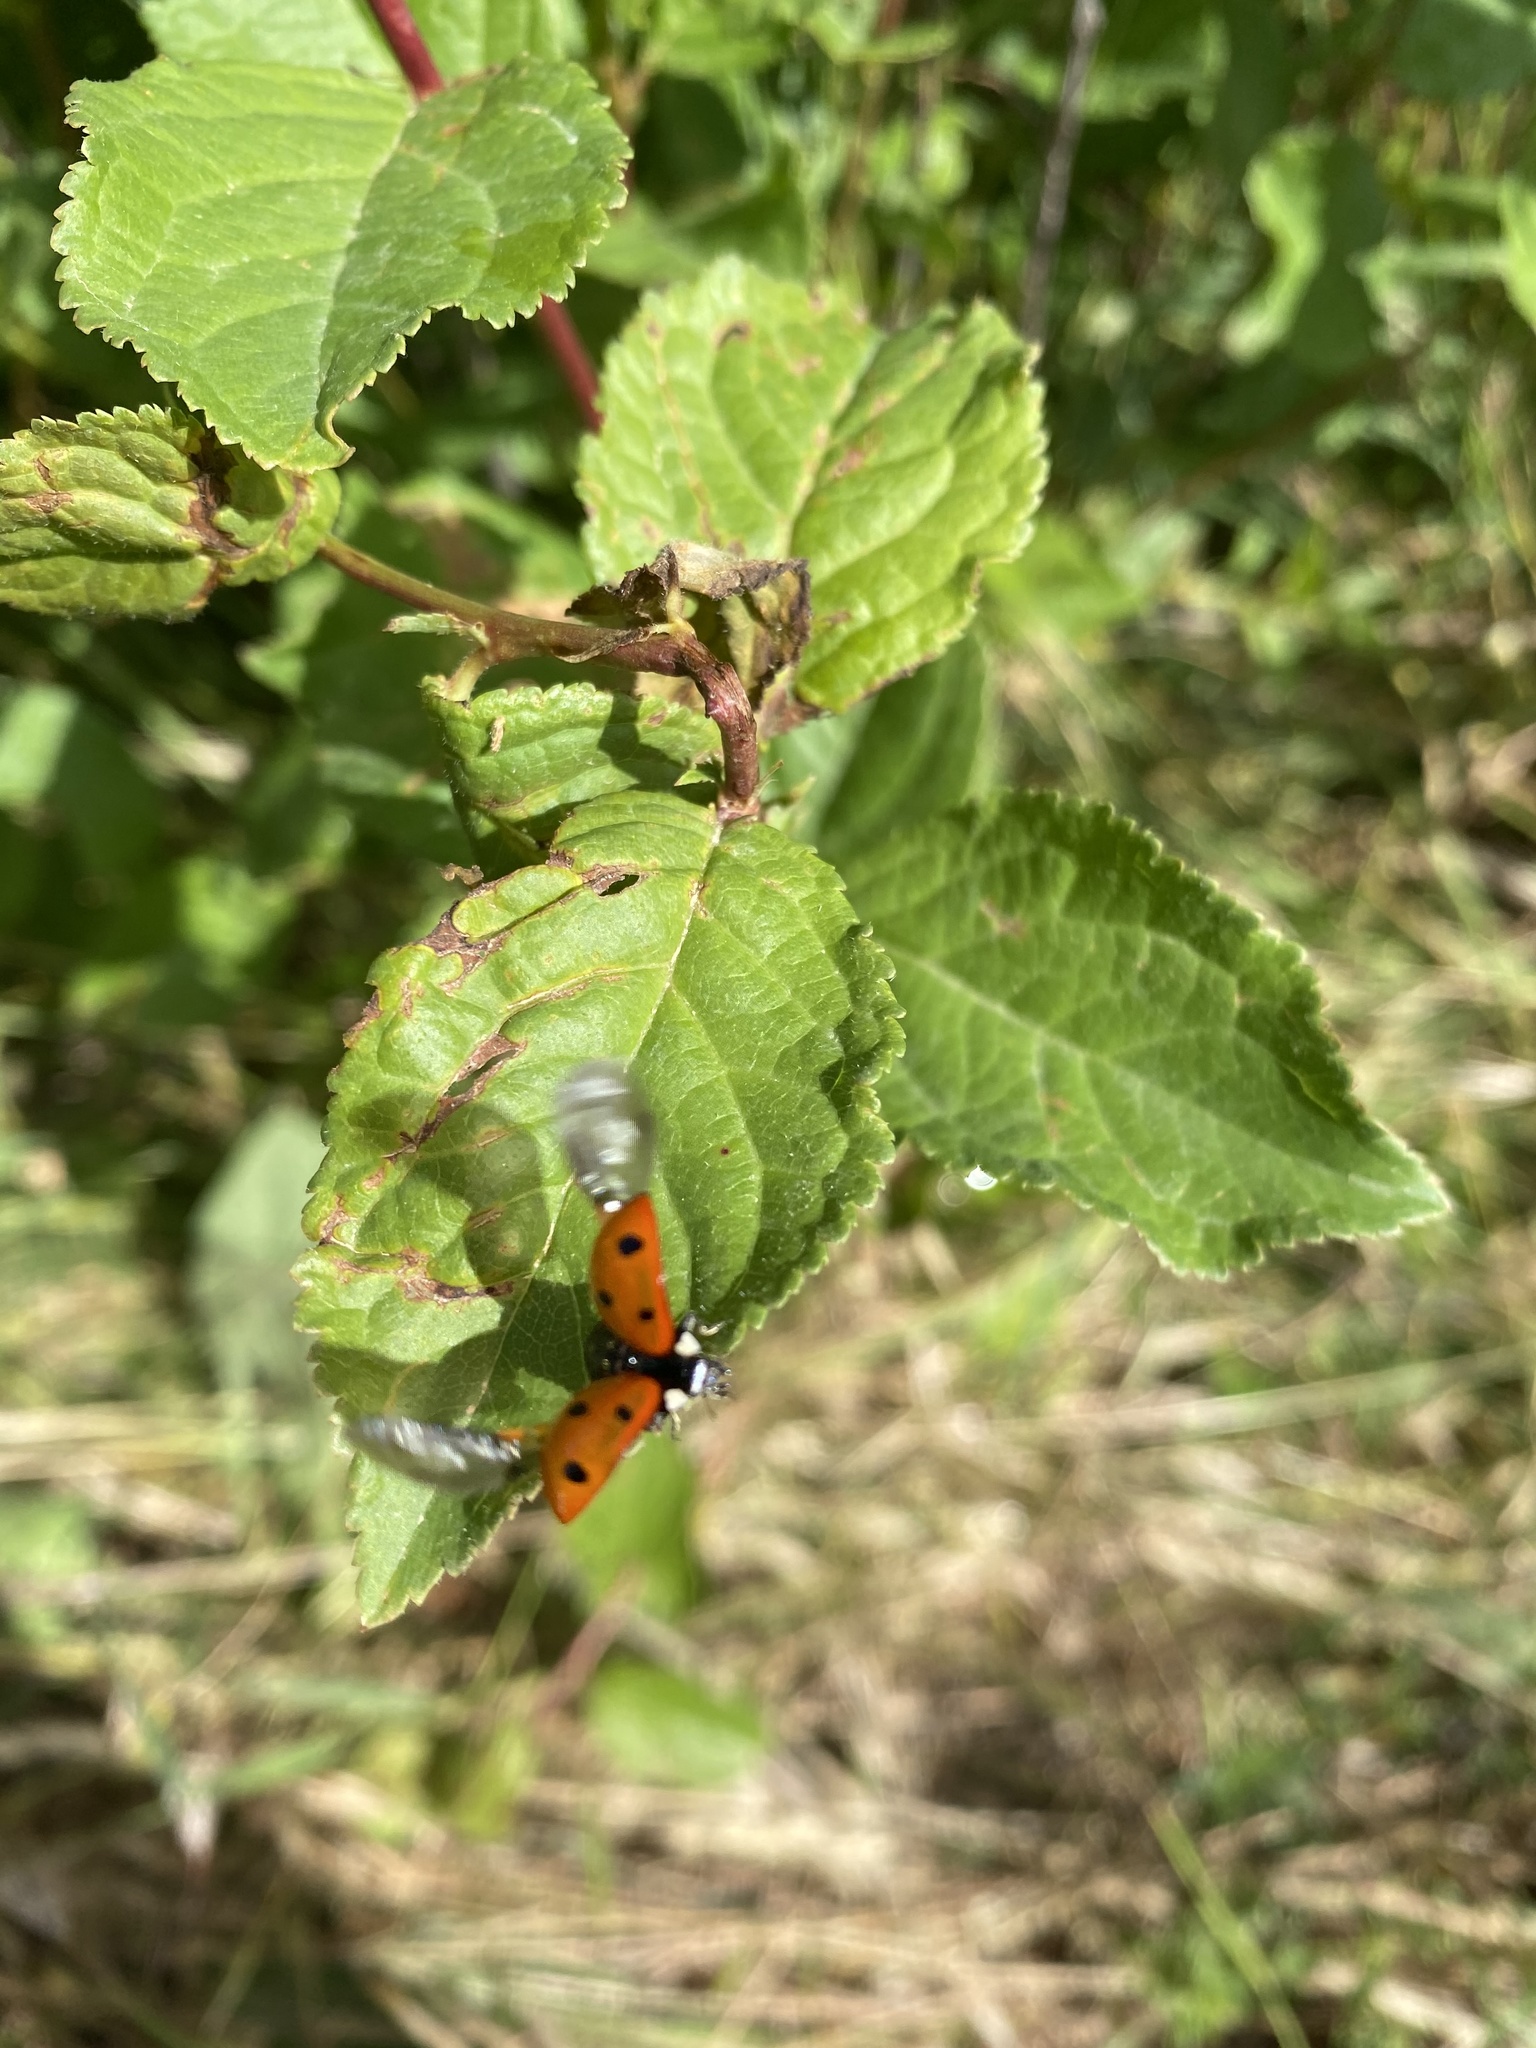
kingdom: Animalia
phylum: Arthropoda
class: Insecta
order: Coleoptera
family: Coccinellidae
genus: Coccinella
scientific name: Coccinella septempunctata
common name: Sevenspotted lady beetle
